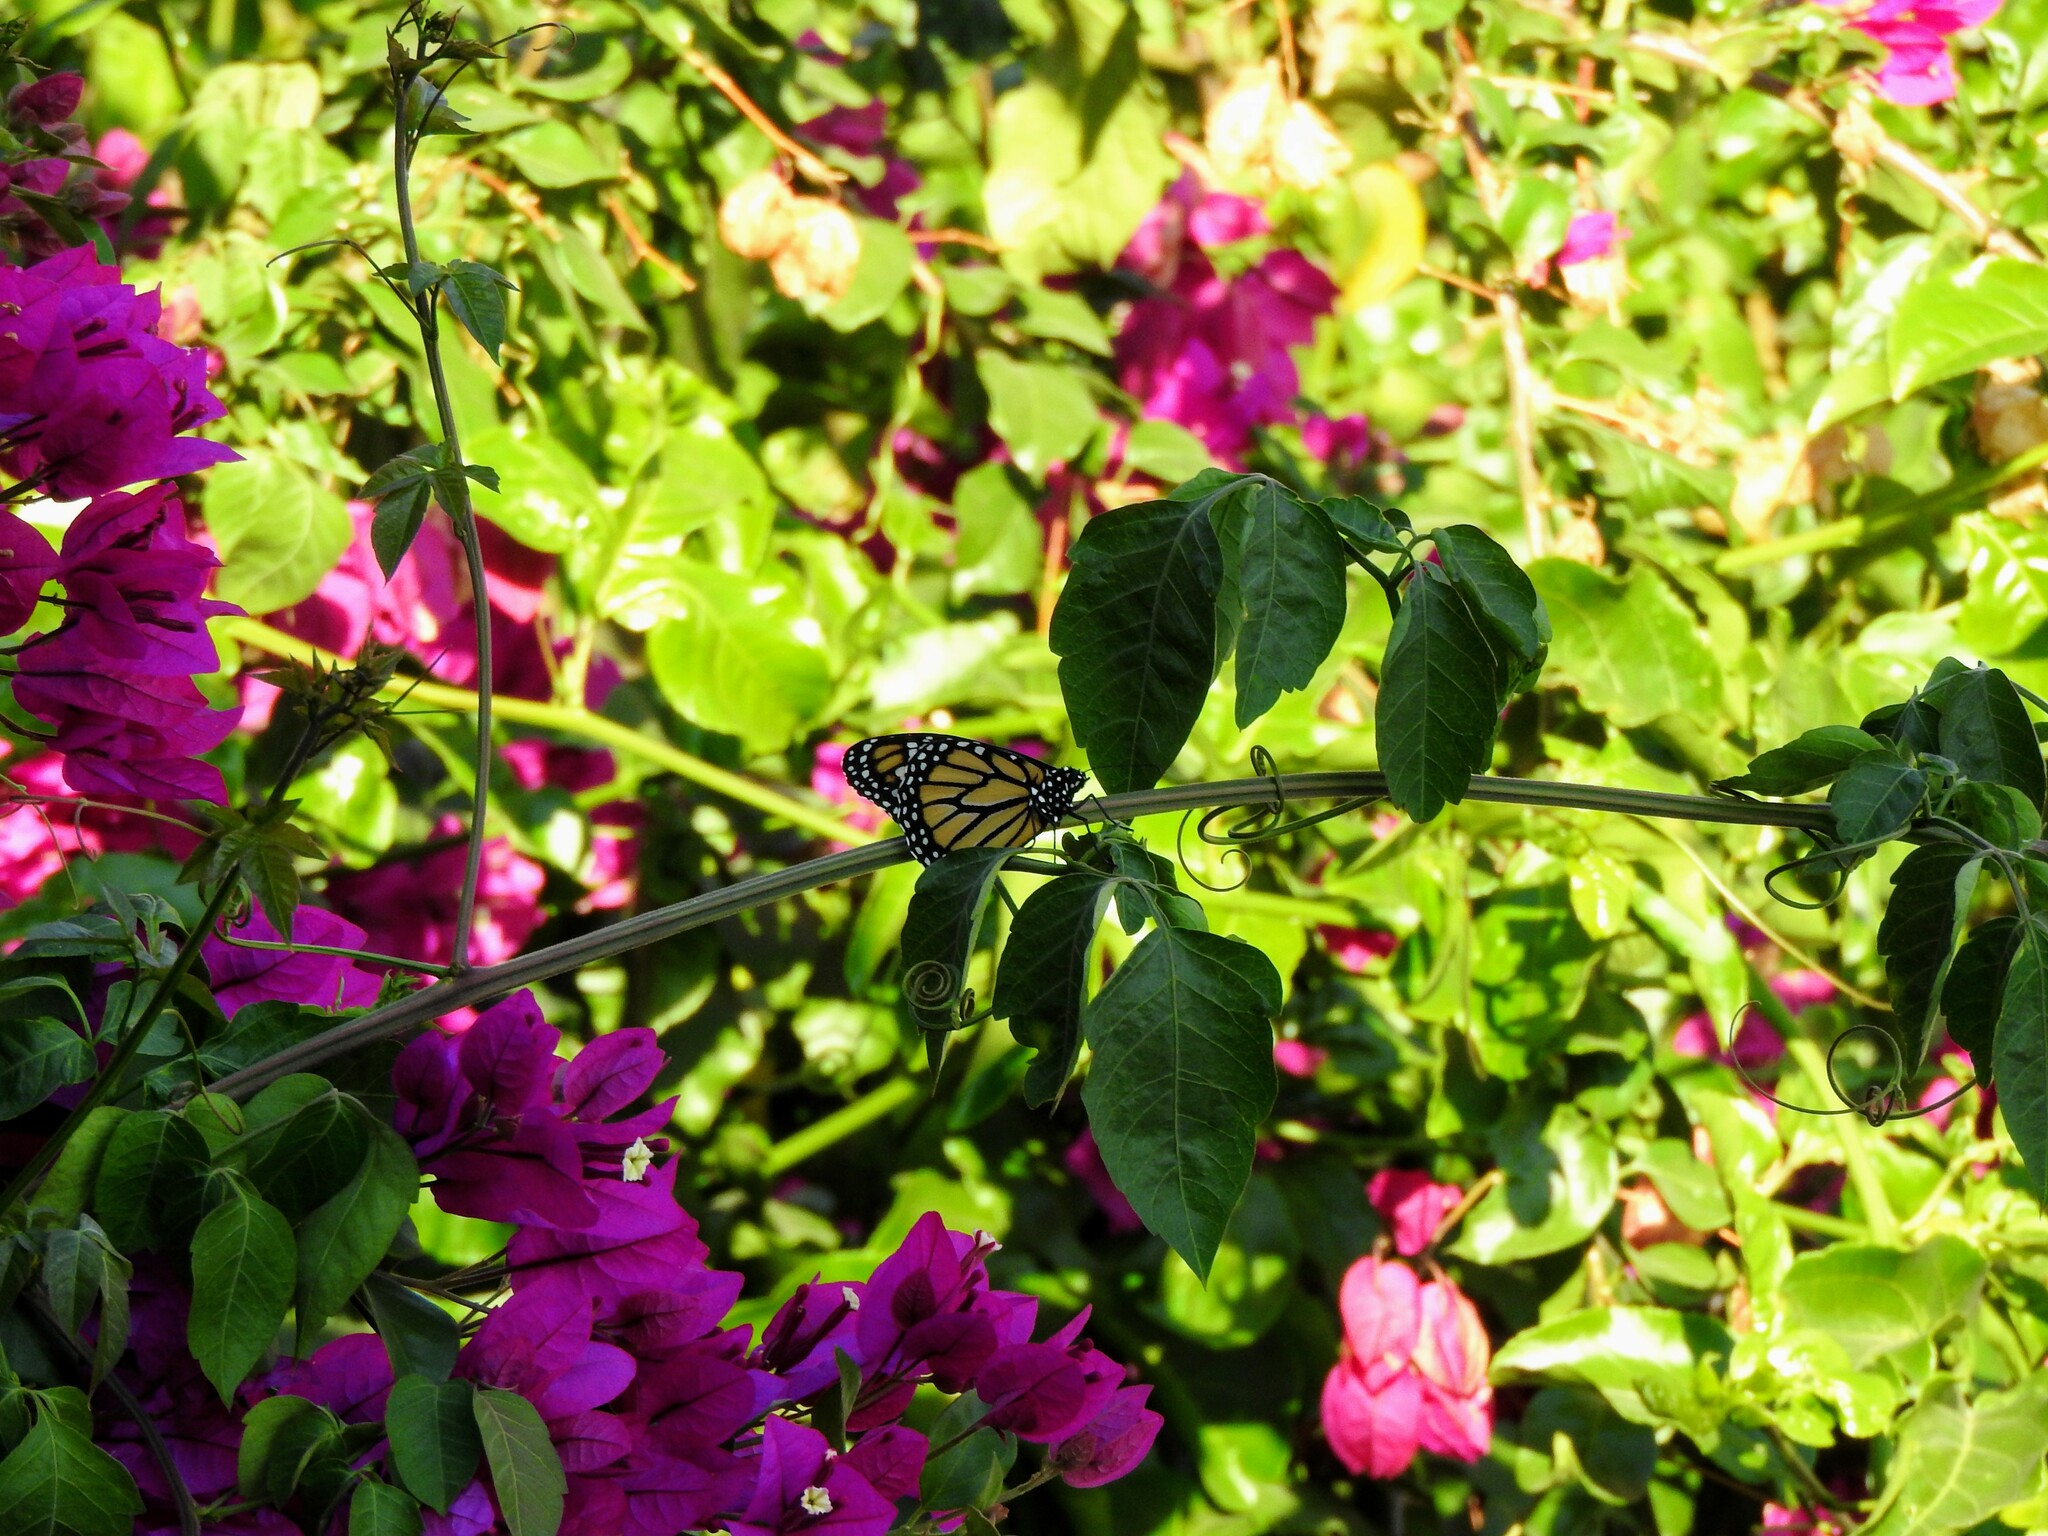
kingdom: Animalia
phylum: Arthropoda
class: Insecta
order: Lepidoptera
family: Nymphalidae
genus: Danaus
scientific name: Danaus plexippus
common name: Monarch
